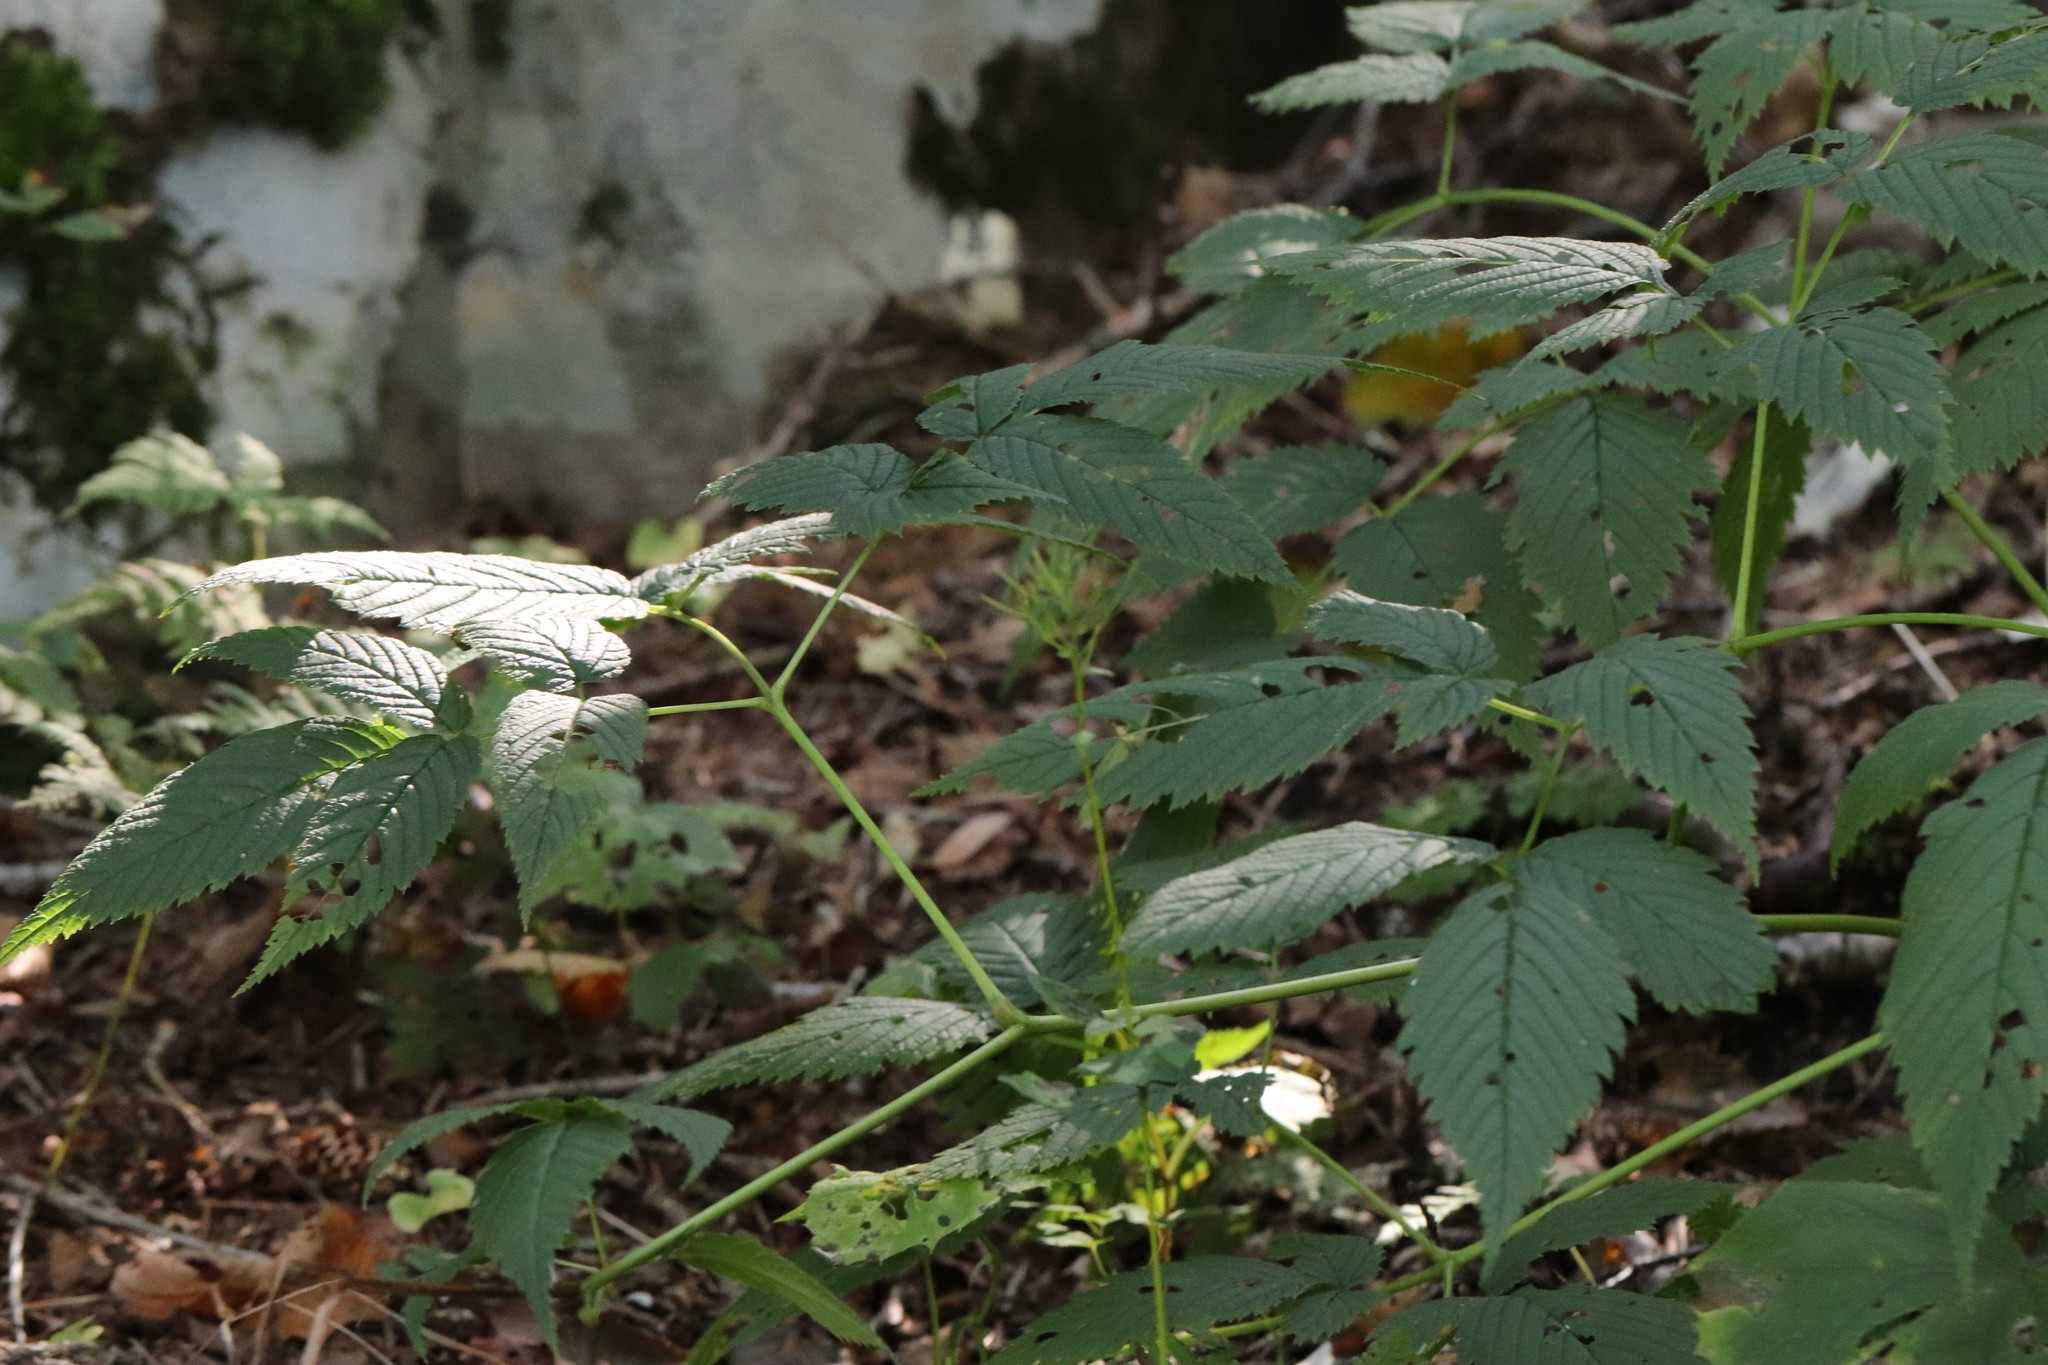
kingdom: Plantae
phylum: Tracheophyta
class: Magnoliopsida
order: Rosales
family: Rosaceae
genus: Aruncus
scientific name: Aruncus dioicus
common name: Buck's-beard
